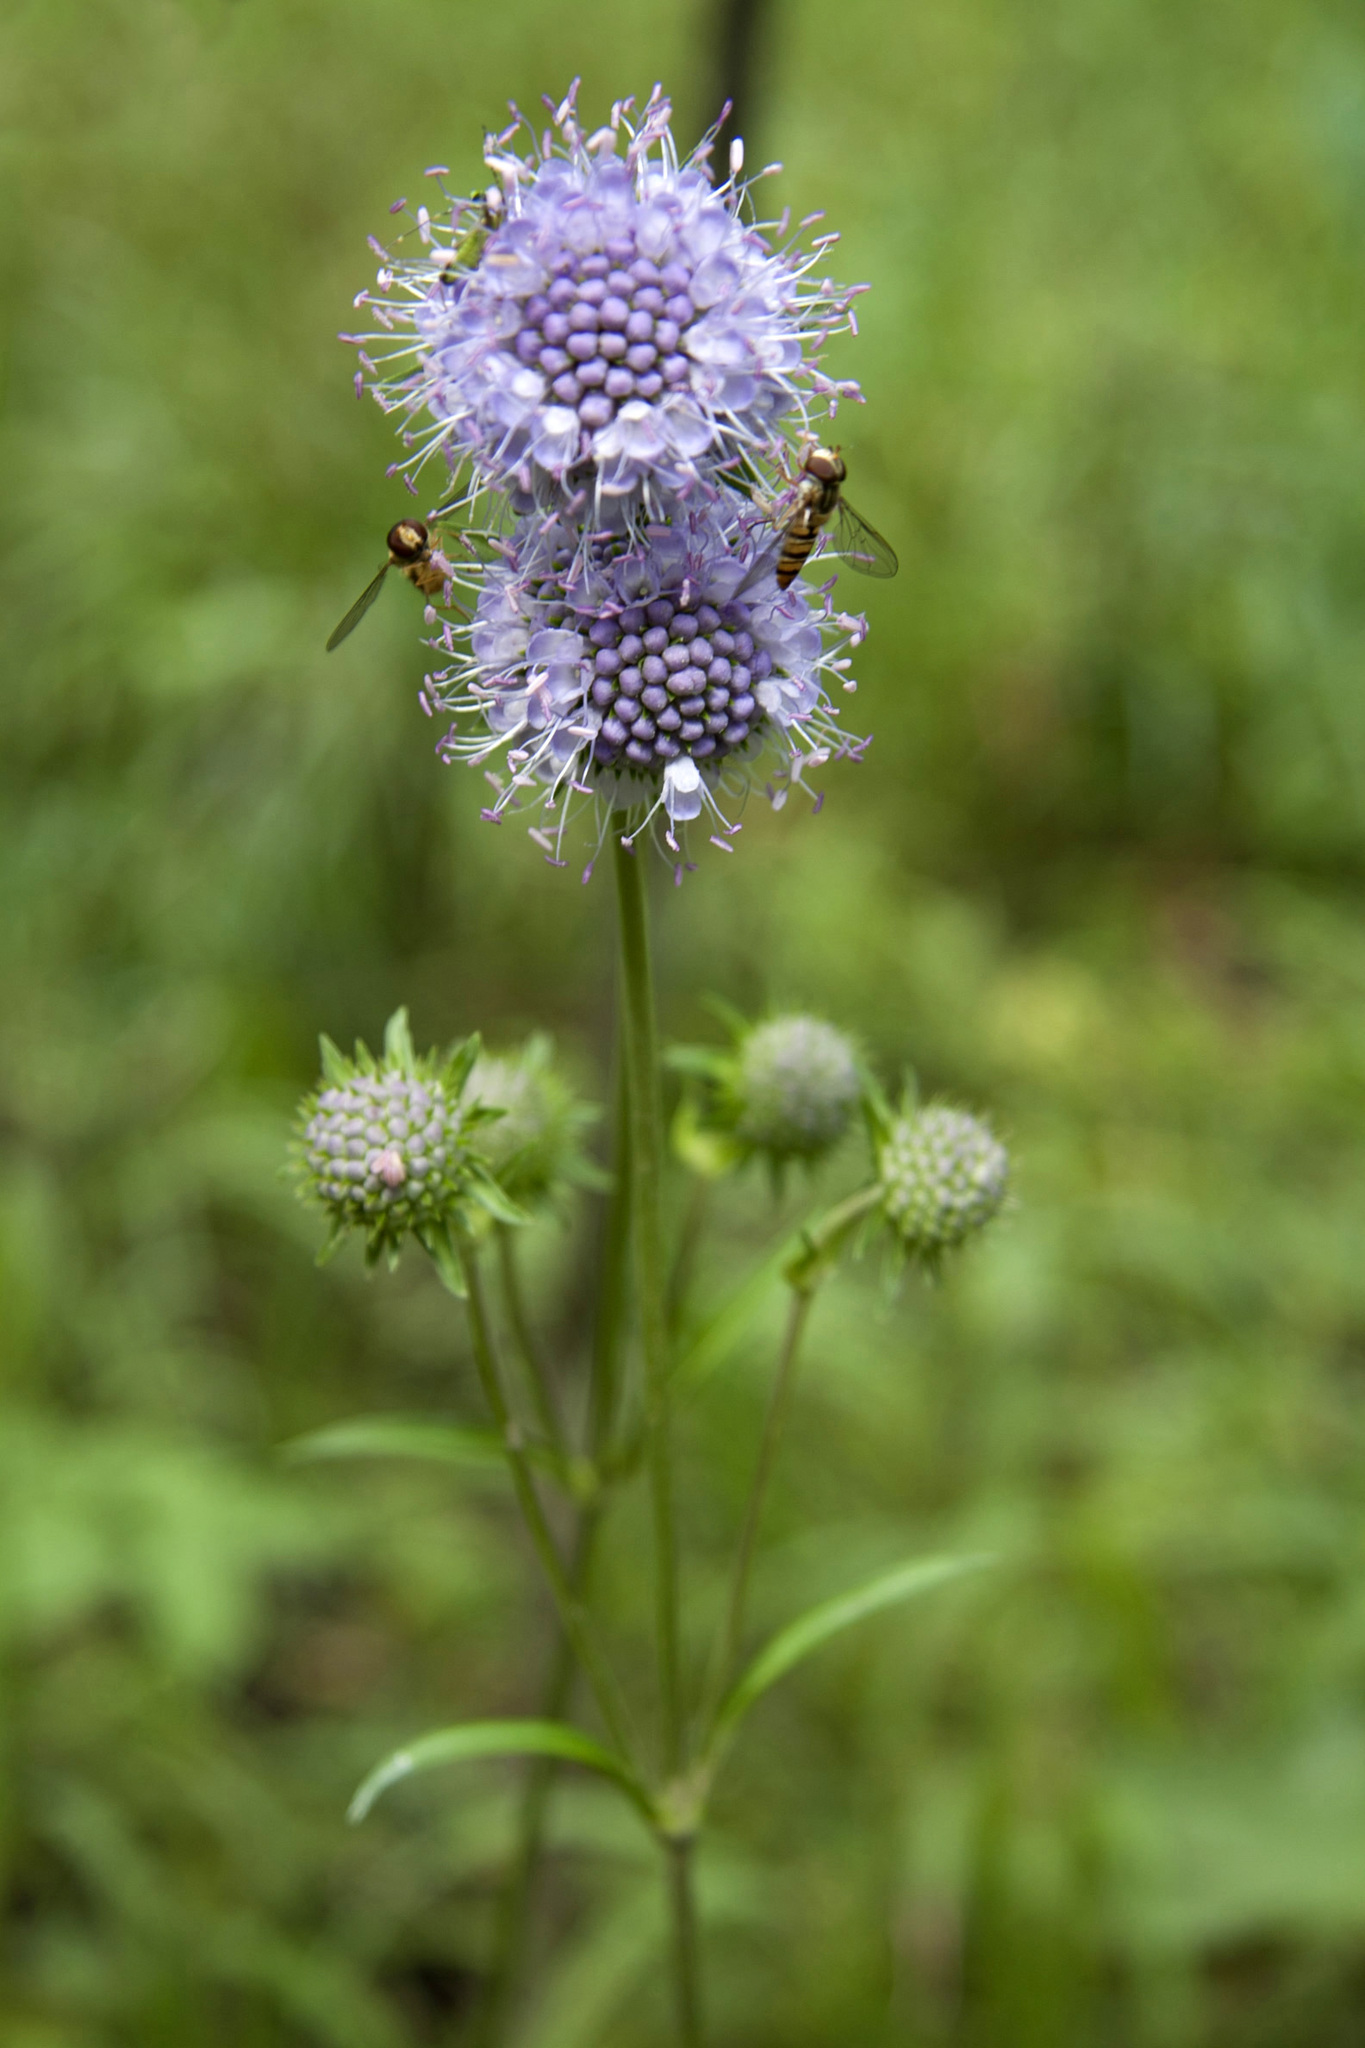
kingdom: Plantae
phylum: Tracheophyta
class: Magnoliopsida
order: Dipsacales
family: Caprifoliaceae
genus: Succisa
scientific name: Succisa pratensis
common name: Devil's-bit
